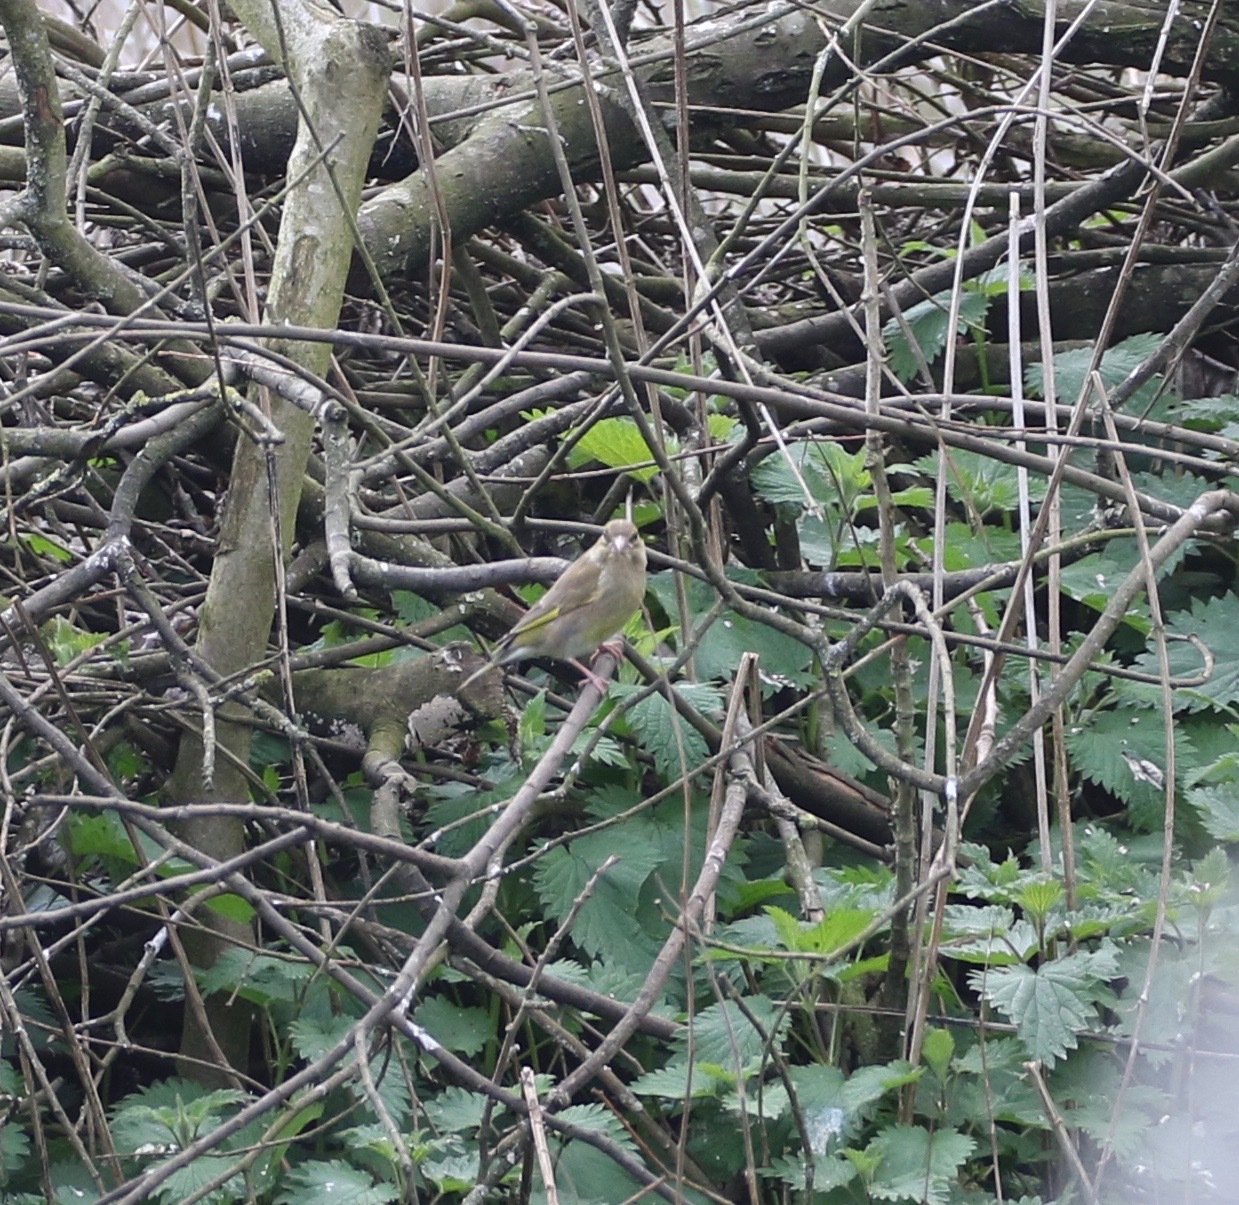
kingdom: Plantae
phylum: Tracheophyta
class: Liliopsida
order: Poales
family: Poaceae
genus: Chloris
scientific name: Chloris chloris
